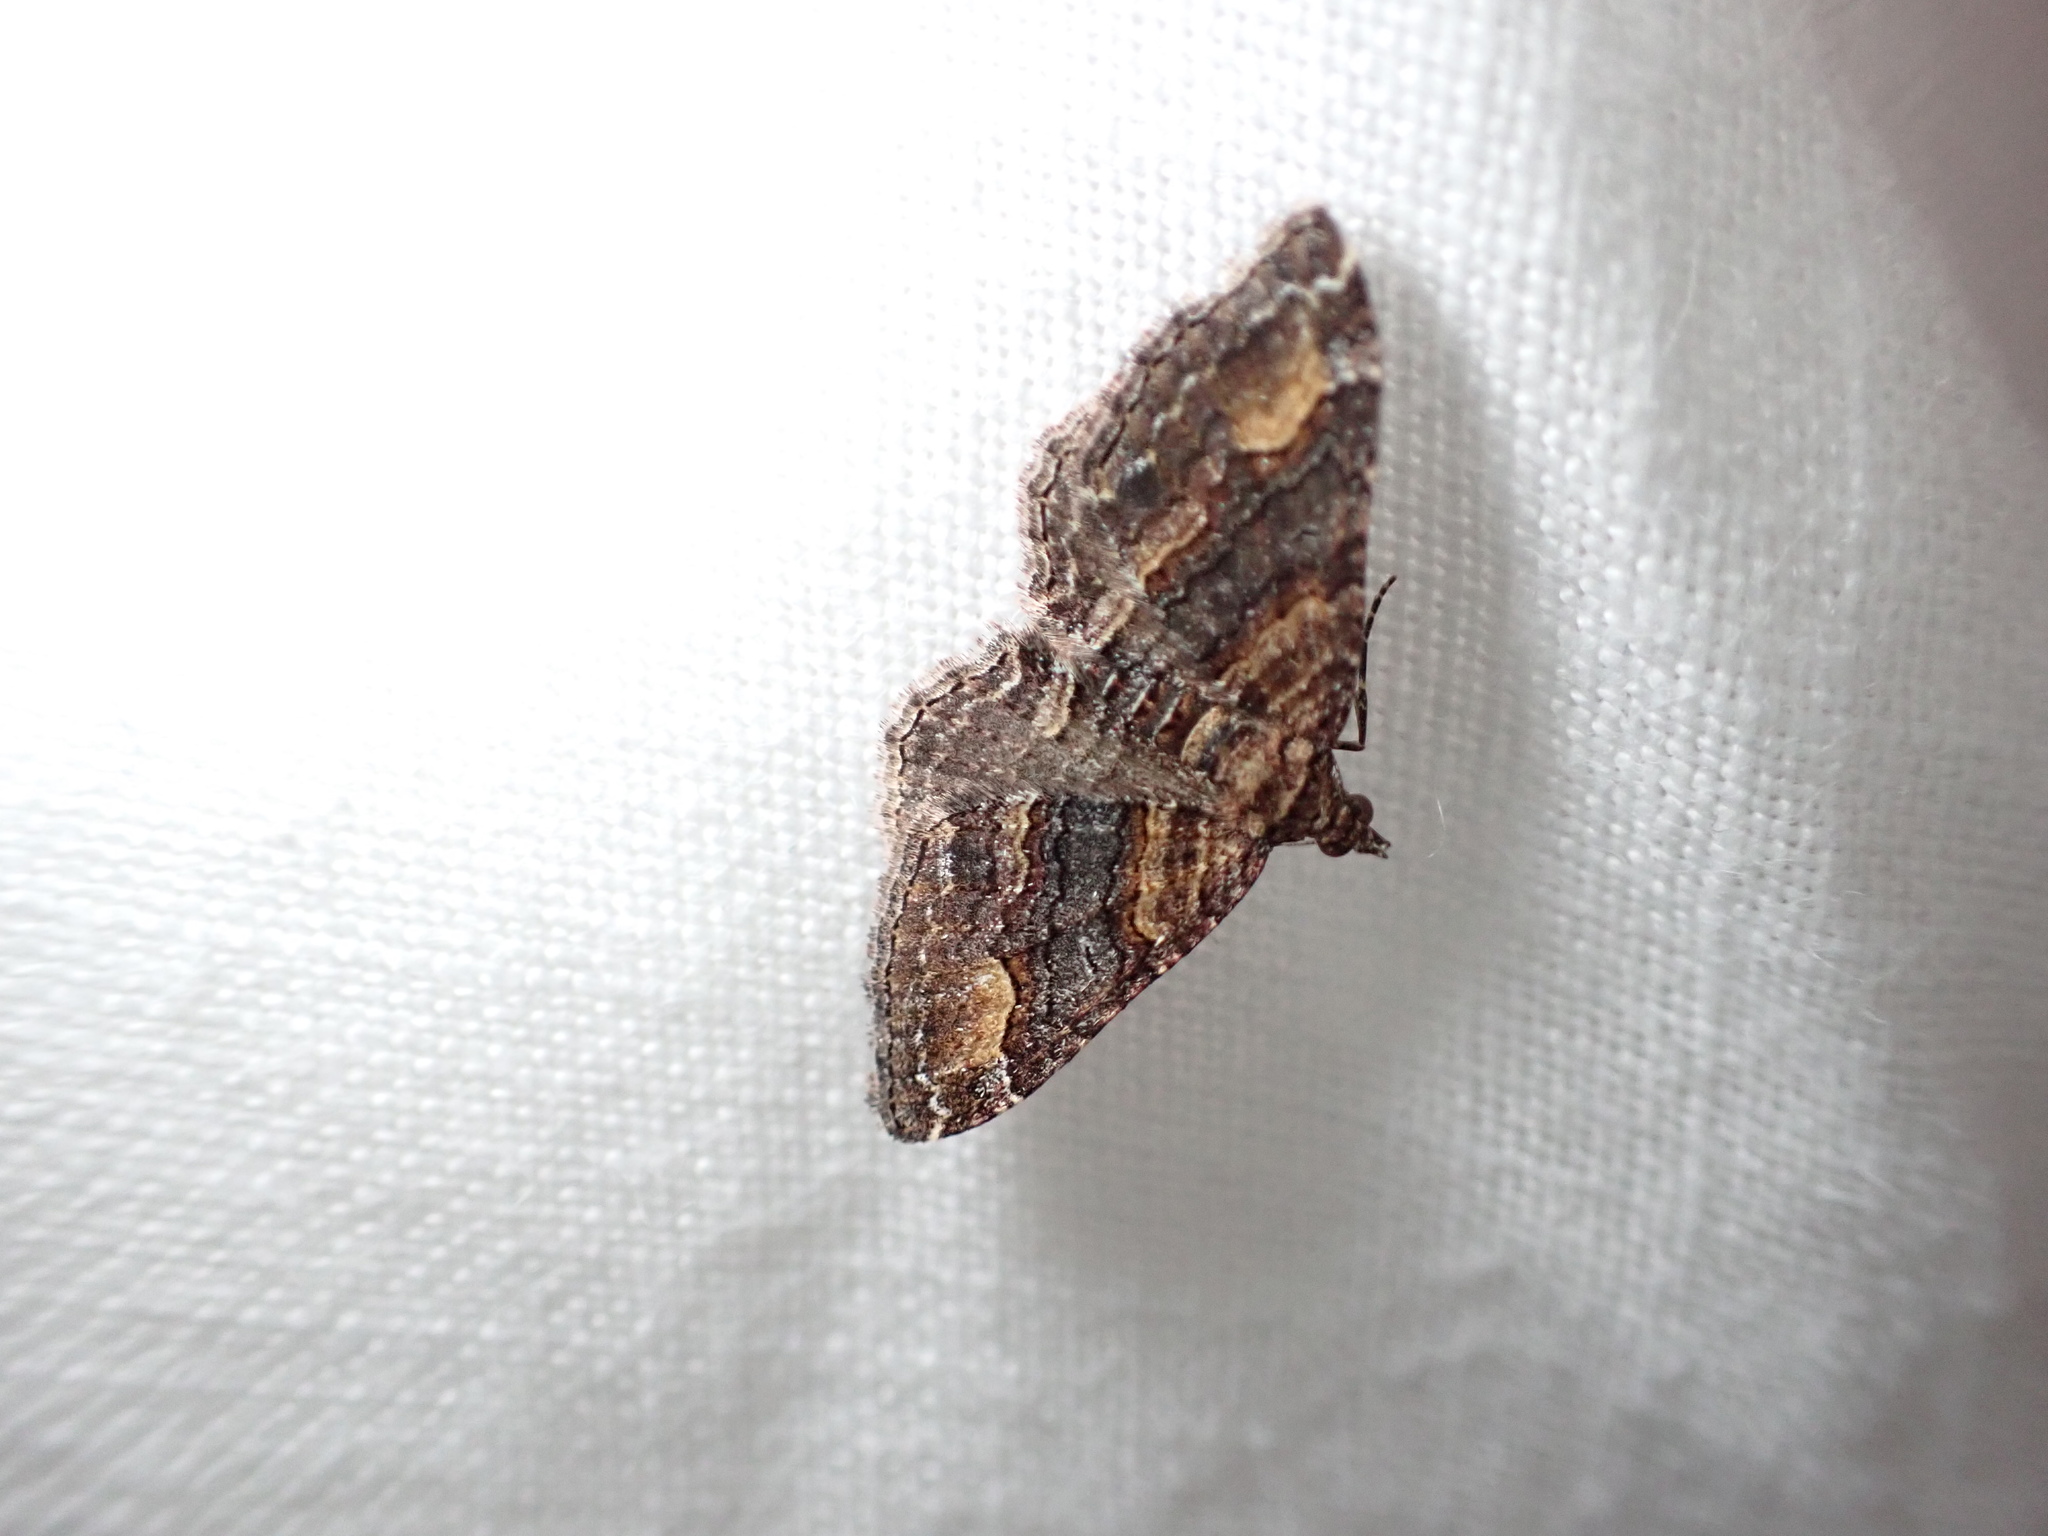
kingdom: Animalia
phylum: Arthropoda
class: Insecta
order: Lepidoptera
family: Geometridae
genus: Epyaxa
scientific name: Epyaxa lucidata
